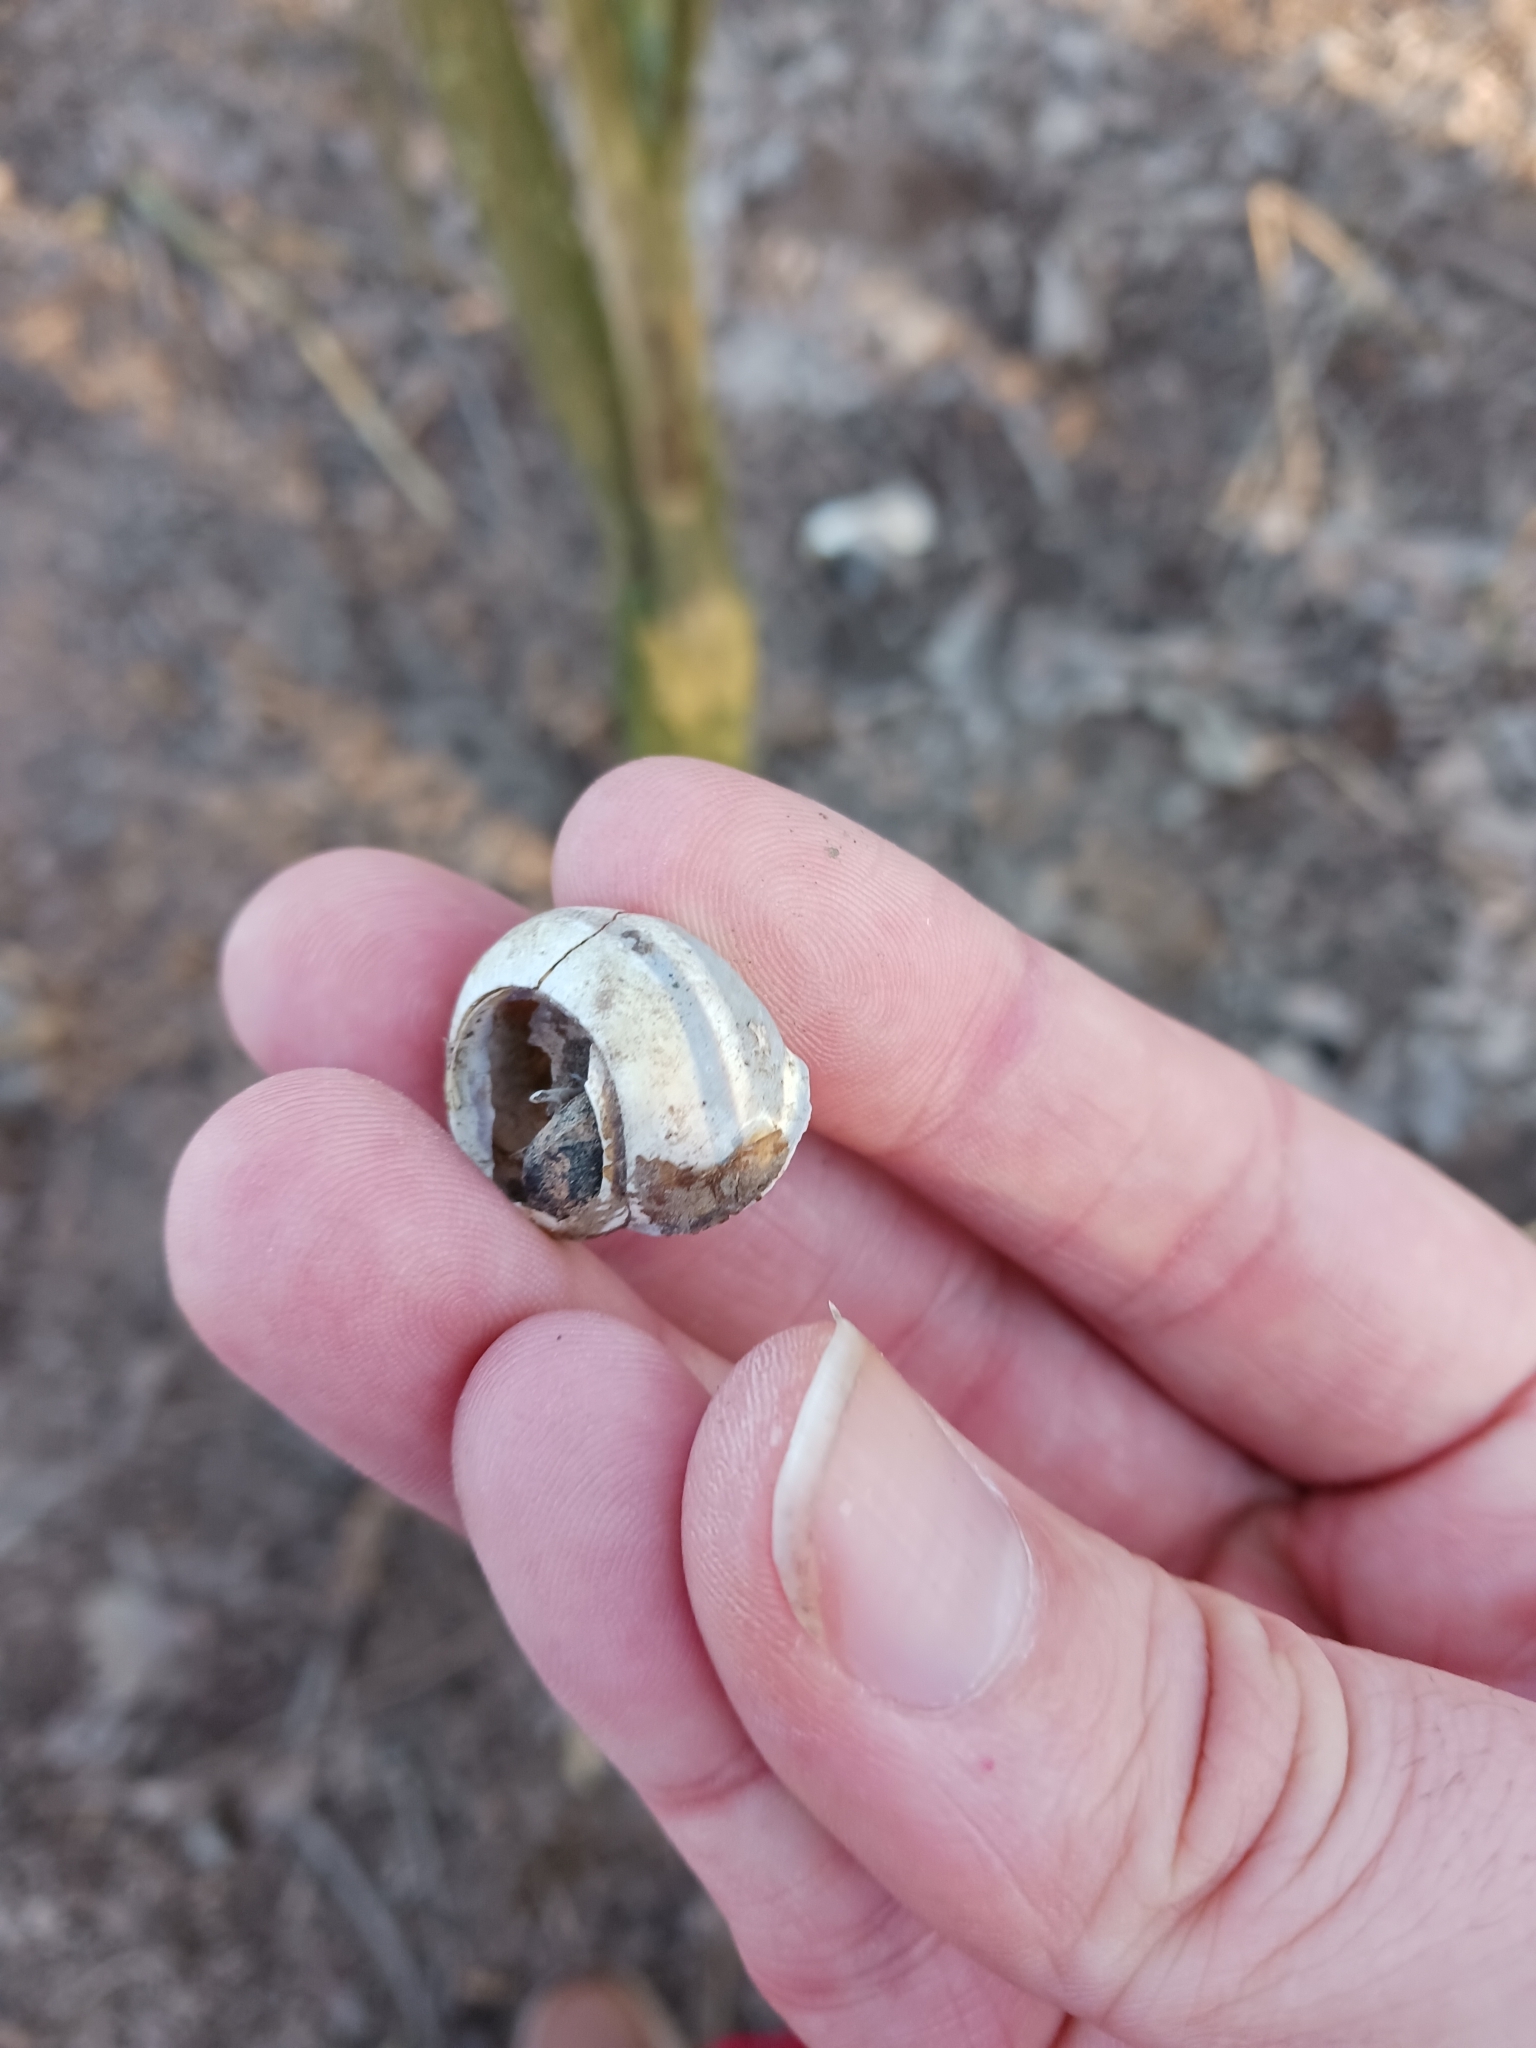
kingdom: Animalia
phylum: Mollusca
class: Gastropoda
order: Stylommatophora
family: Helicidae
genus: Cepaea
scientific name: Cepaea nemoralis
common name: Grovesnail
